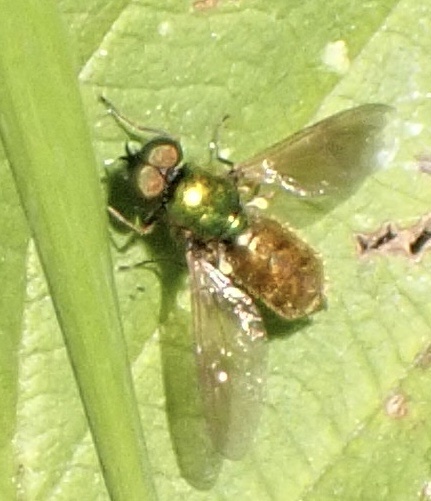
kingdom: Animalia
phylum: Arthropoda
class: Insecta
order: Diptera
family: Stratiomyidae
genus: Chloromyia
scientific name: Chloromyia formosa
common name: Soldier fly
